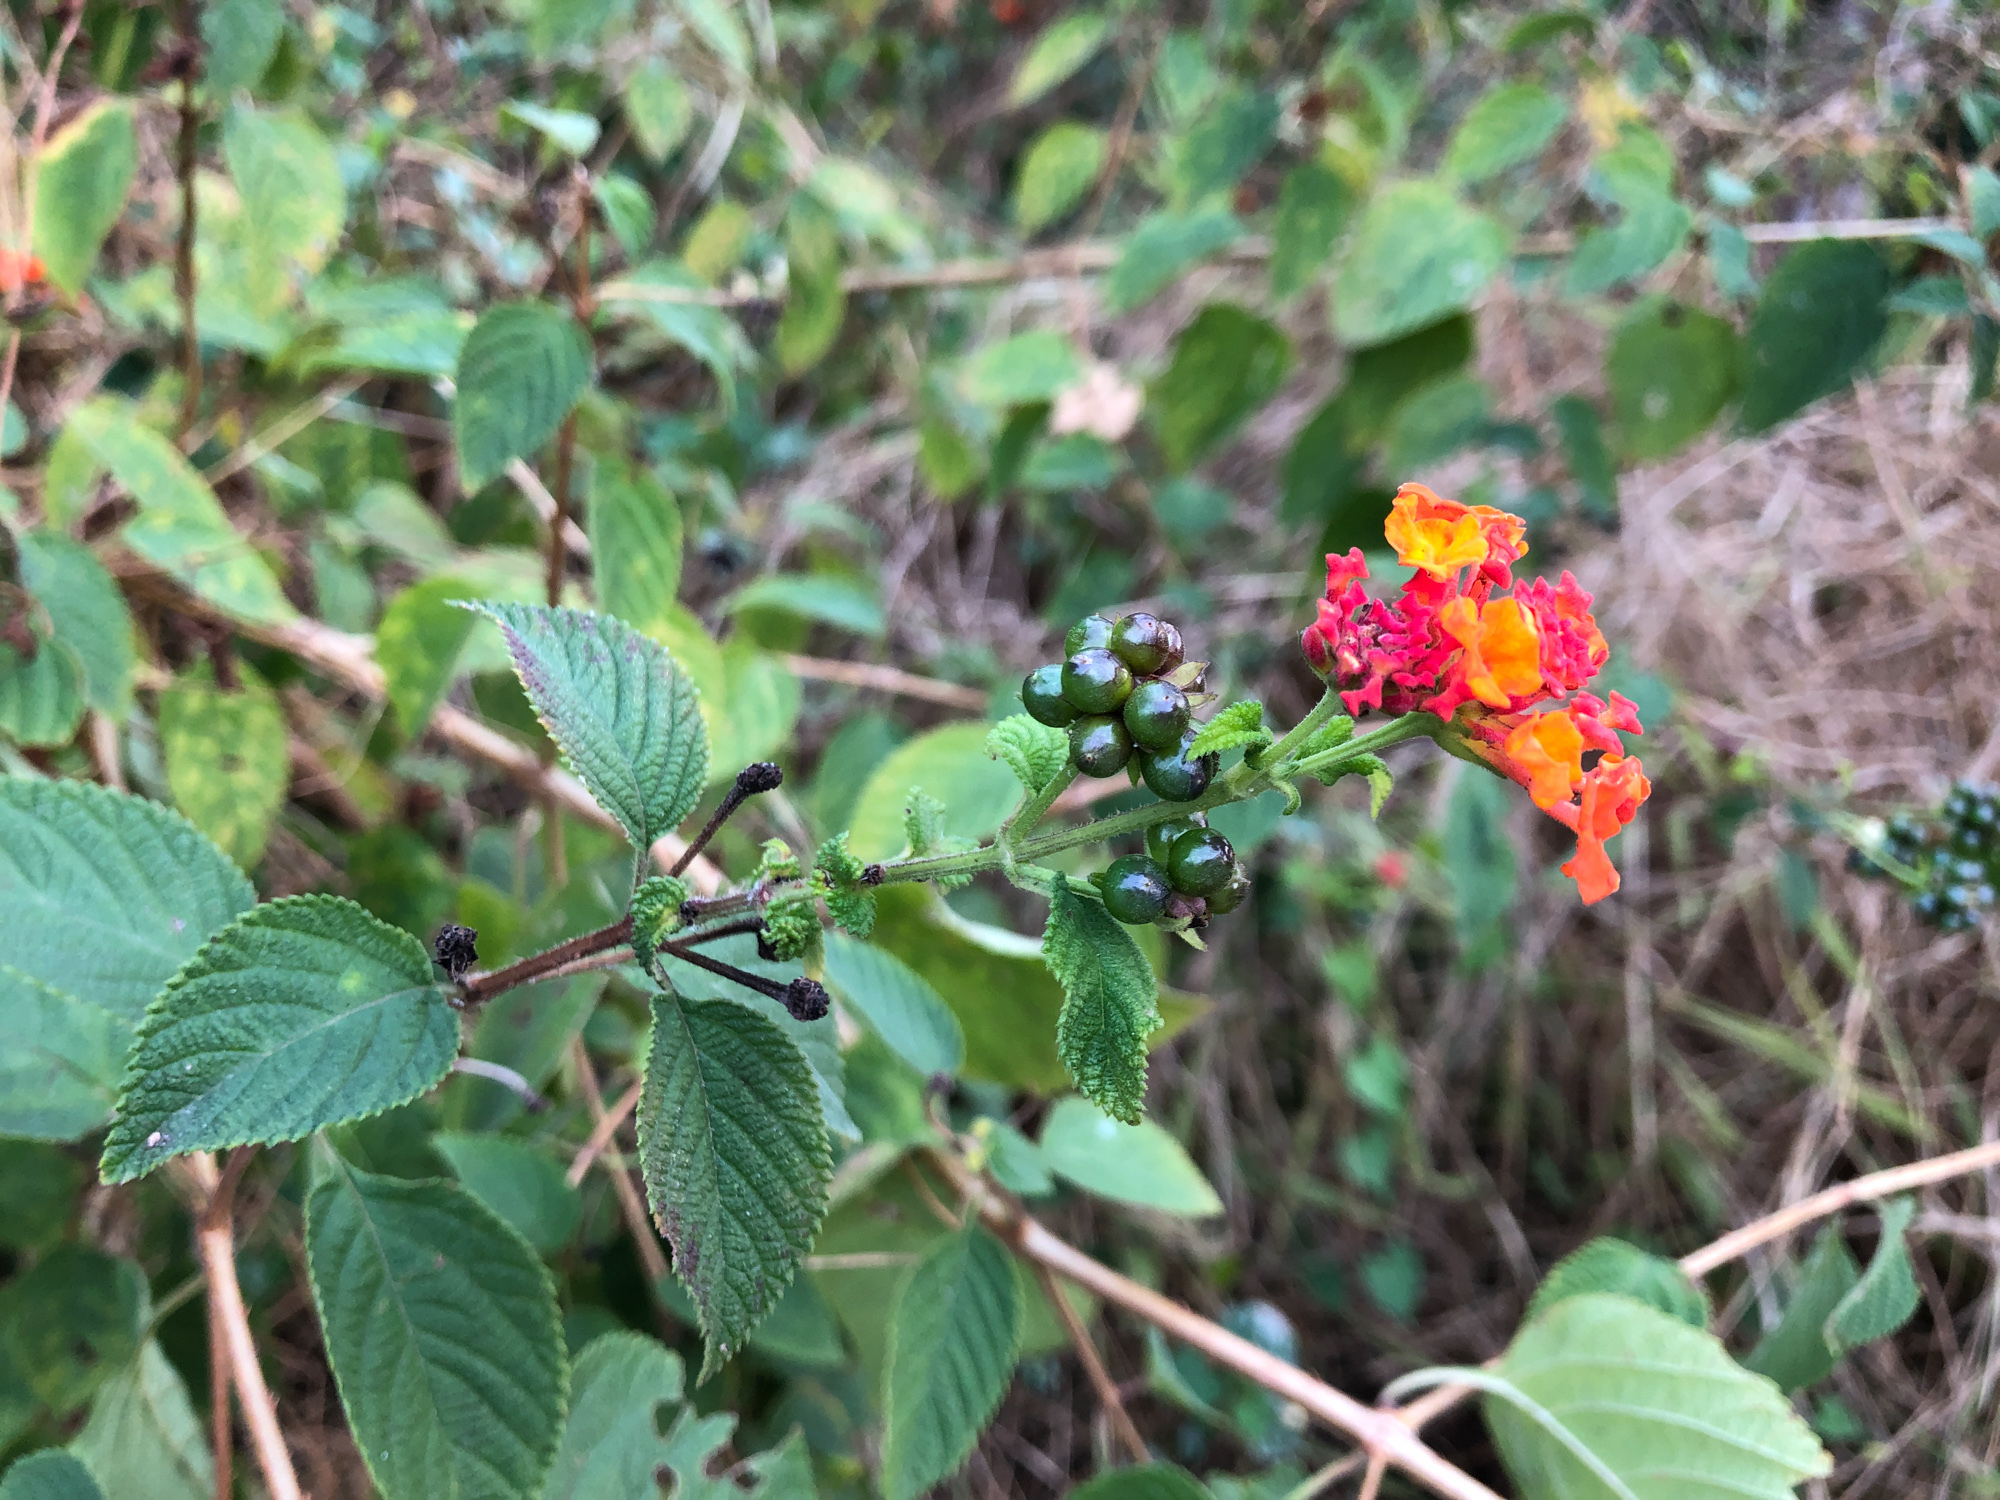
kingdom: Plantae
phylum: Tracheophyta
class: Magnoliopsida
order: Lamiales
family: Verbenaceae
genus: Lantana
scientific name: Lantana camara
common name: Lantana
